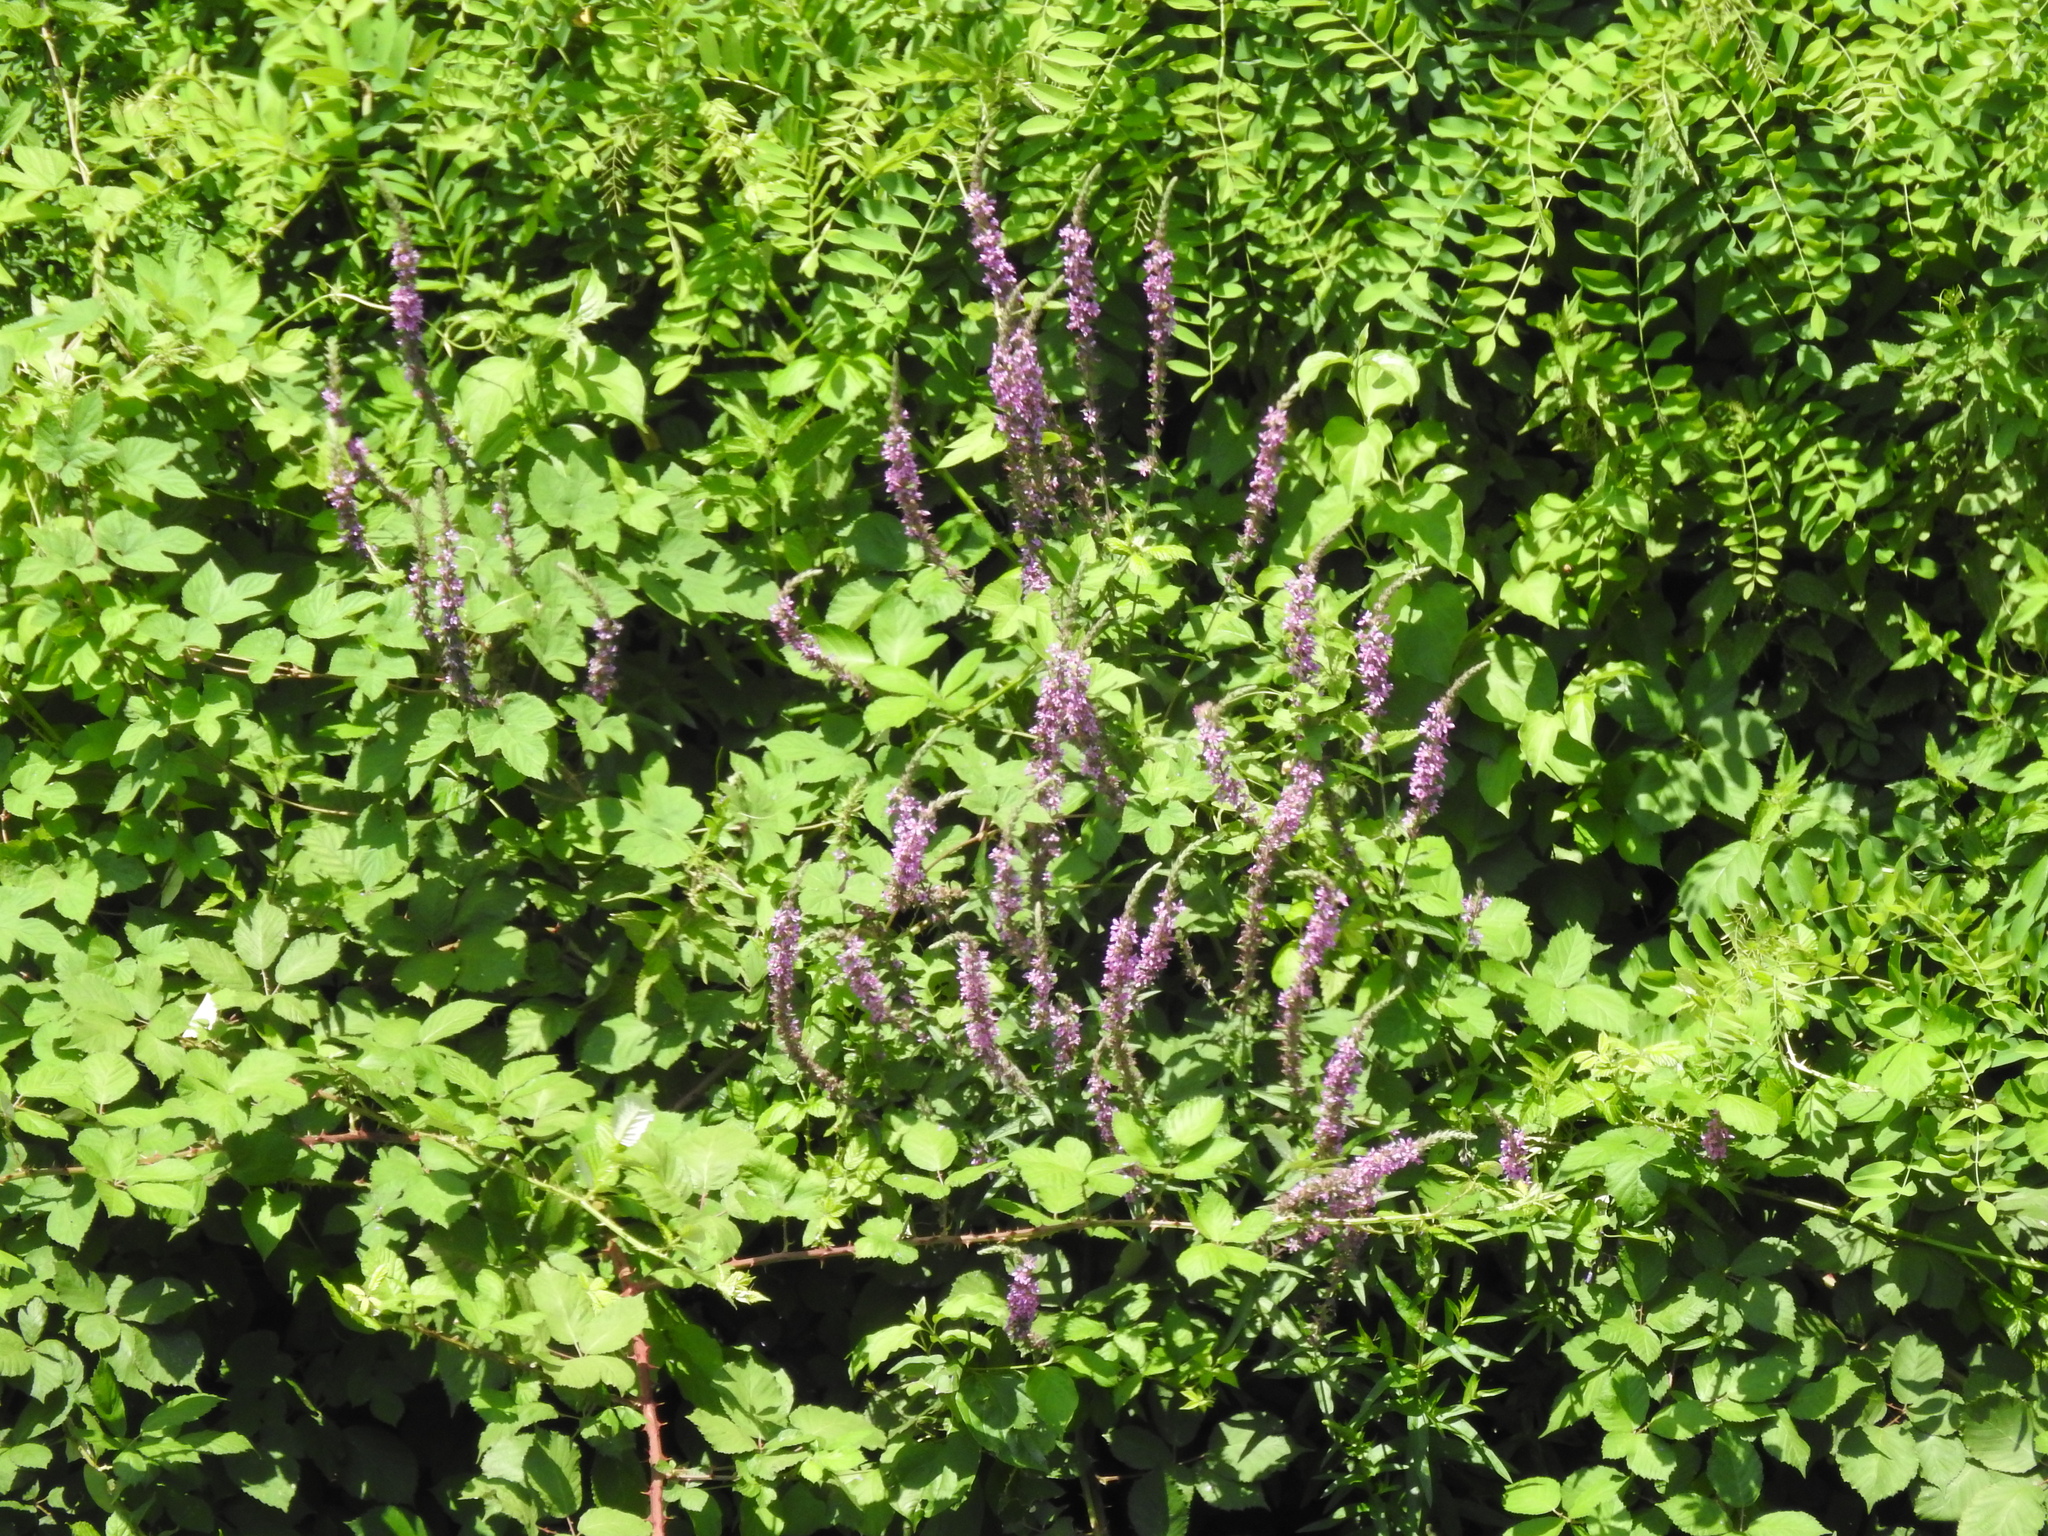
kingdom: Plantae
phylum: Tracheophyta
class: Magnoliopsida
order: Myrtales
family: Lythraceae
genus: Lythrum
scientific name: Lythrum salicaria
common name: Purple loosestrife
